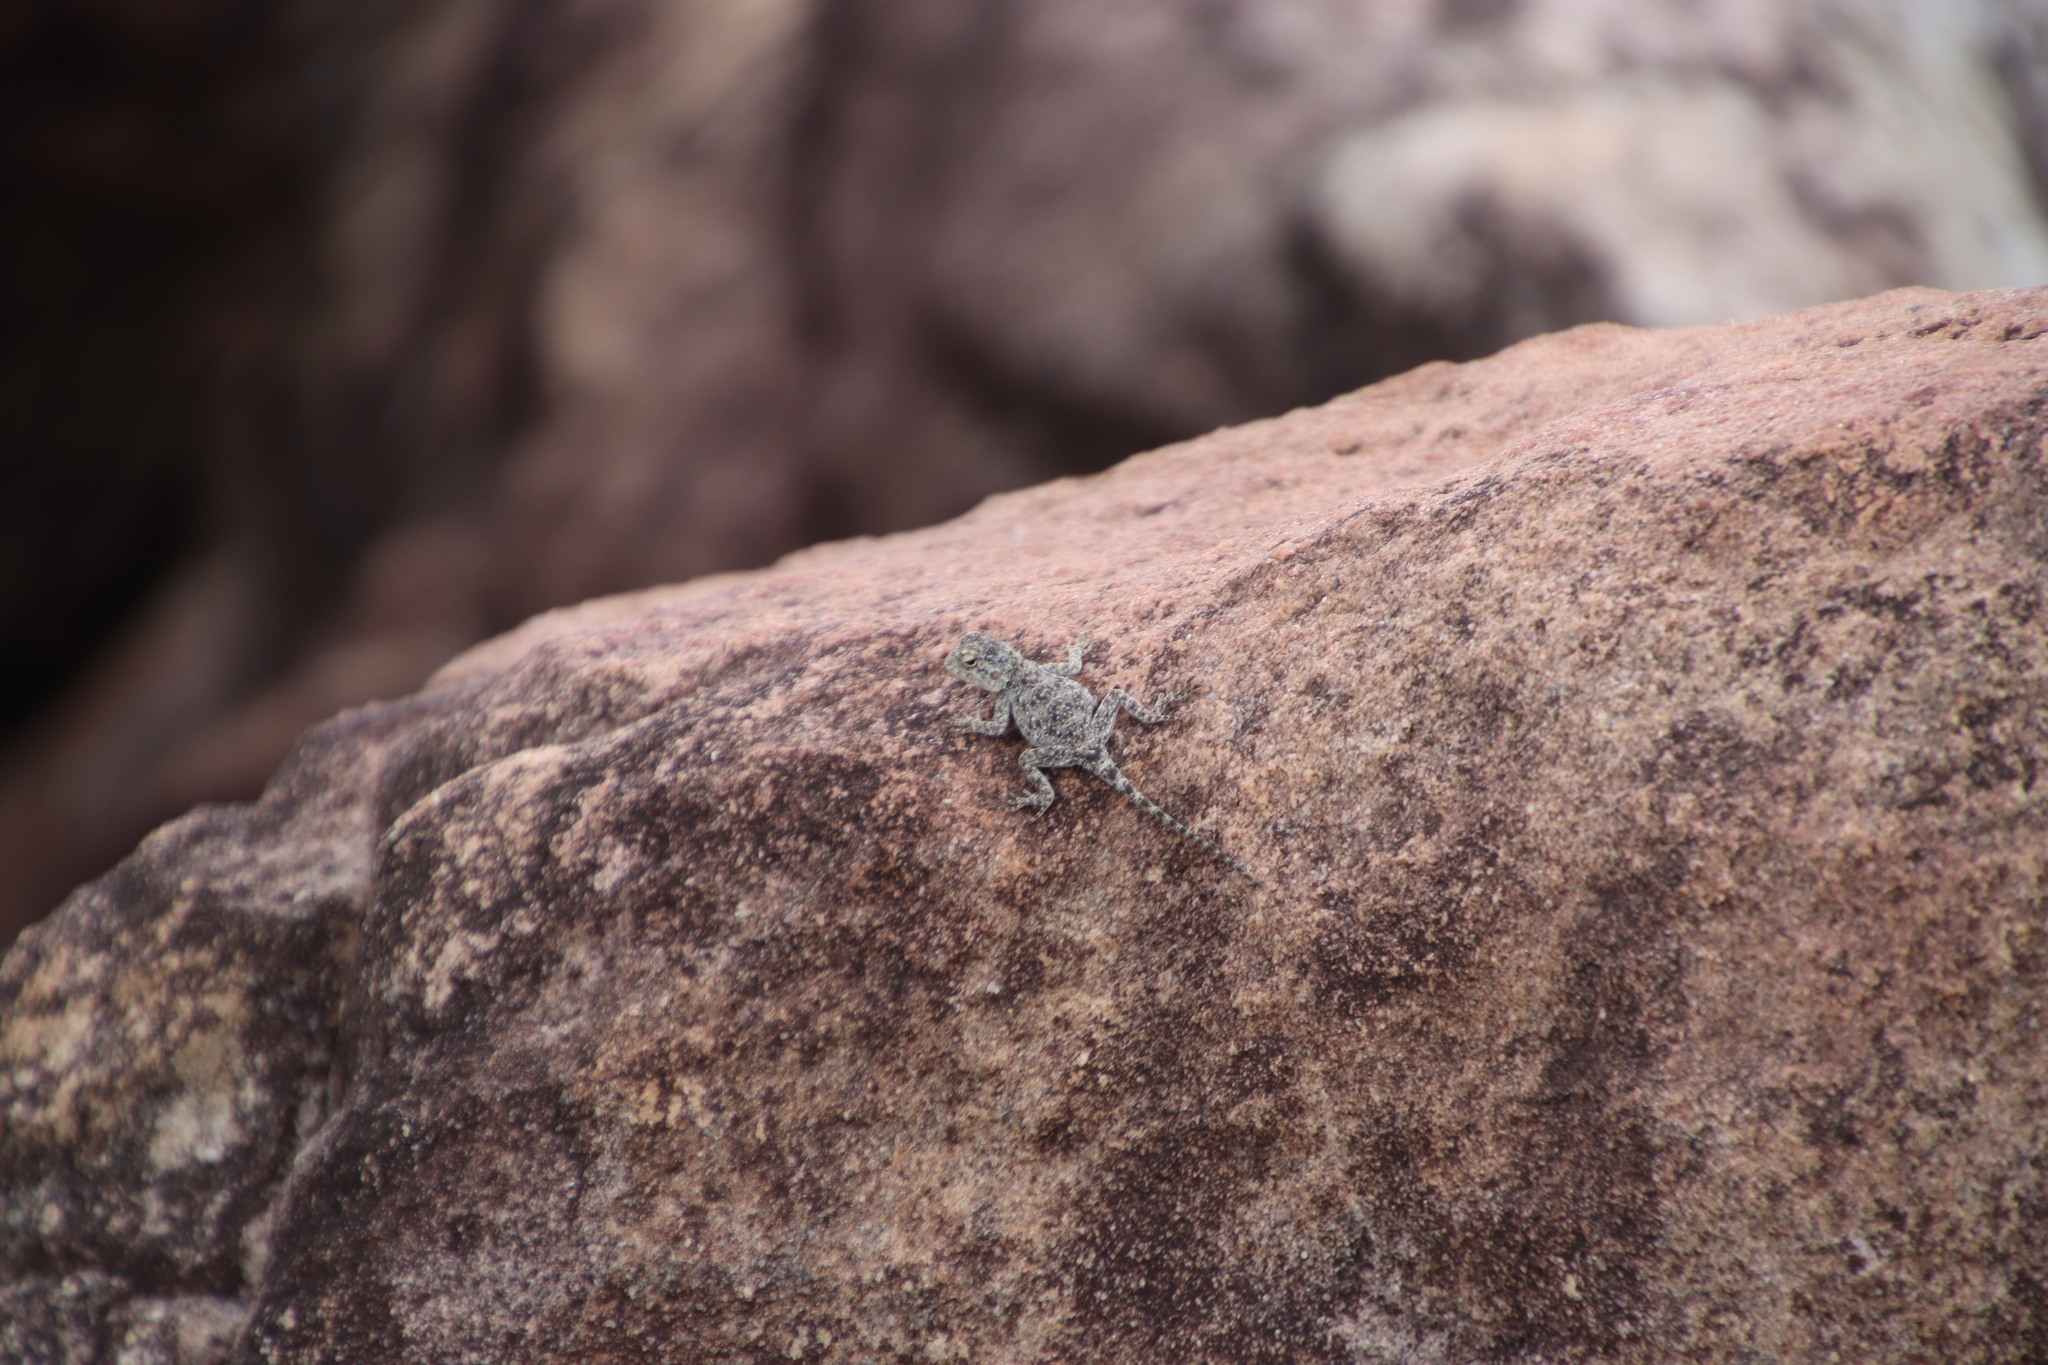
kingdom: Animalia
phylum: Chordata
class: Squamata
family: Agamidae
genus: Agama
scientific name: Agama atra
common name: Southern african rock agama
